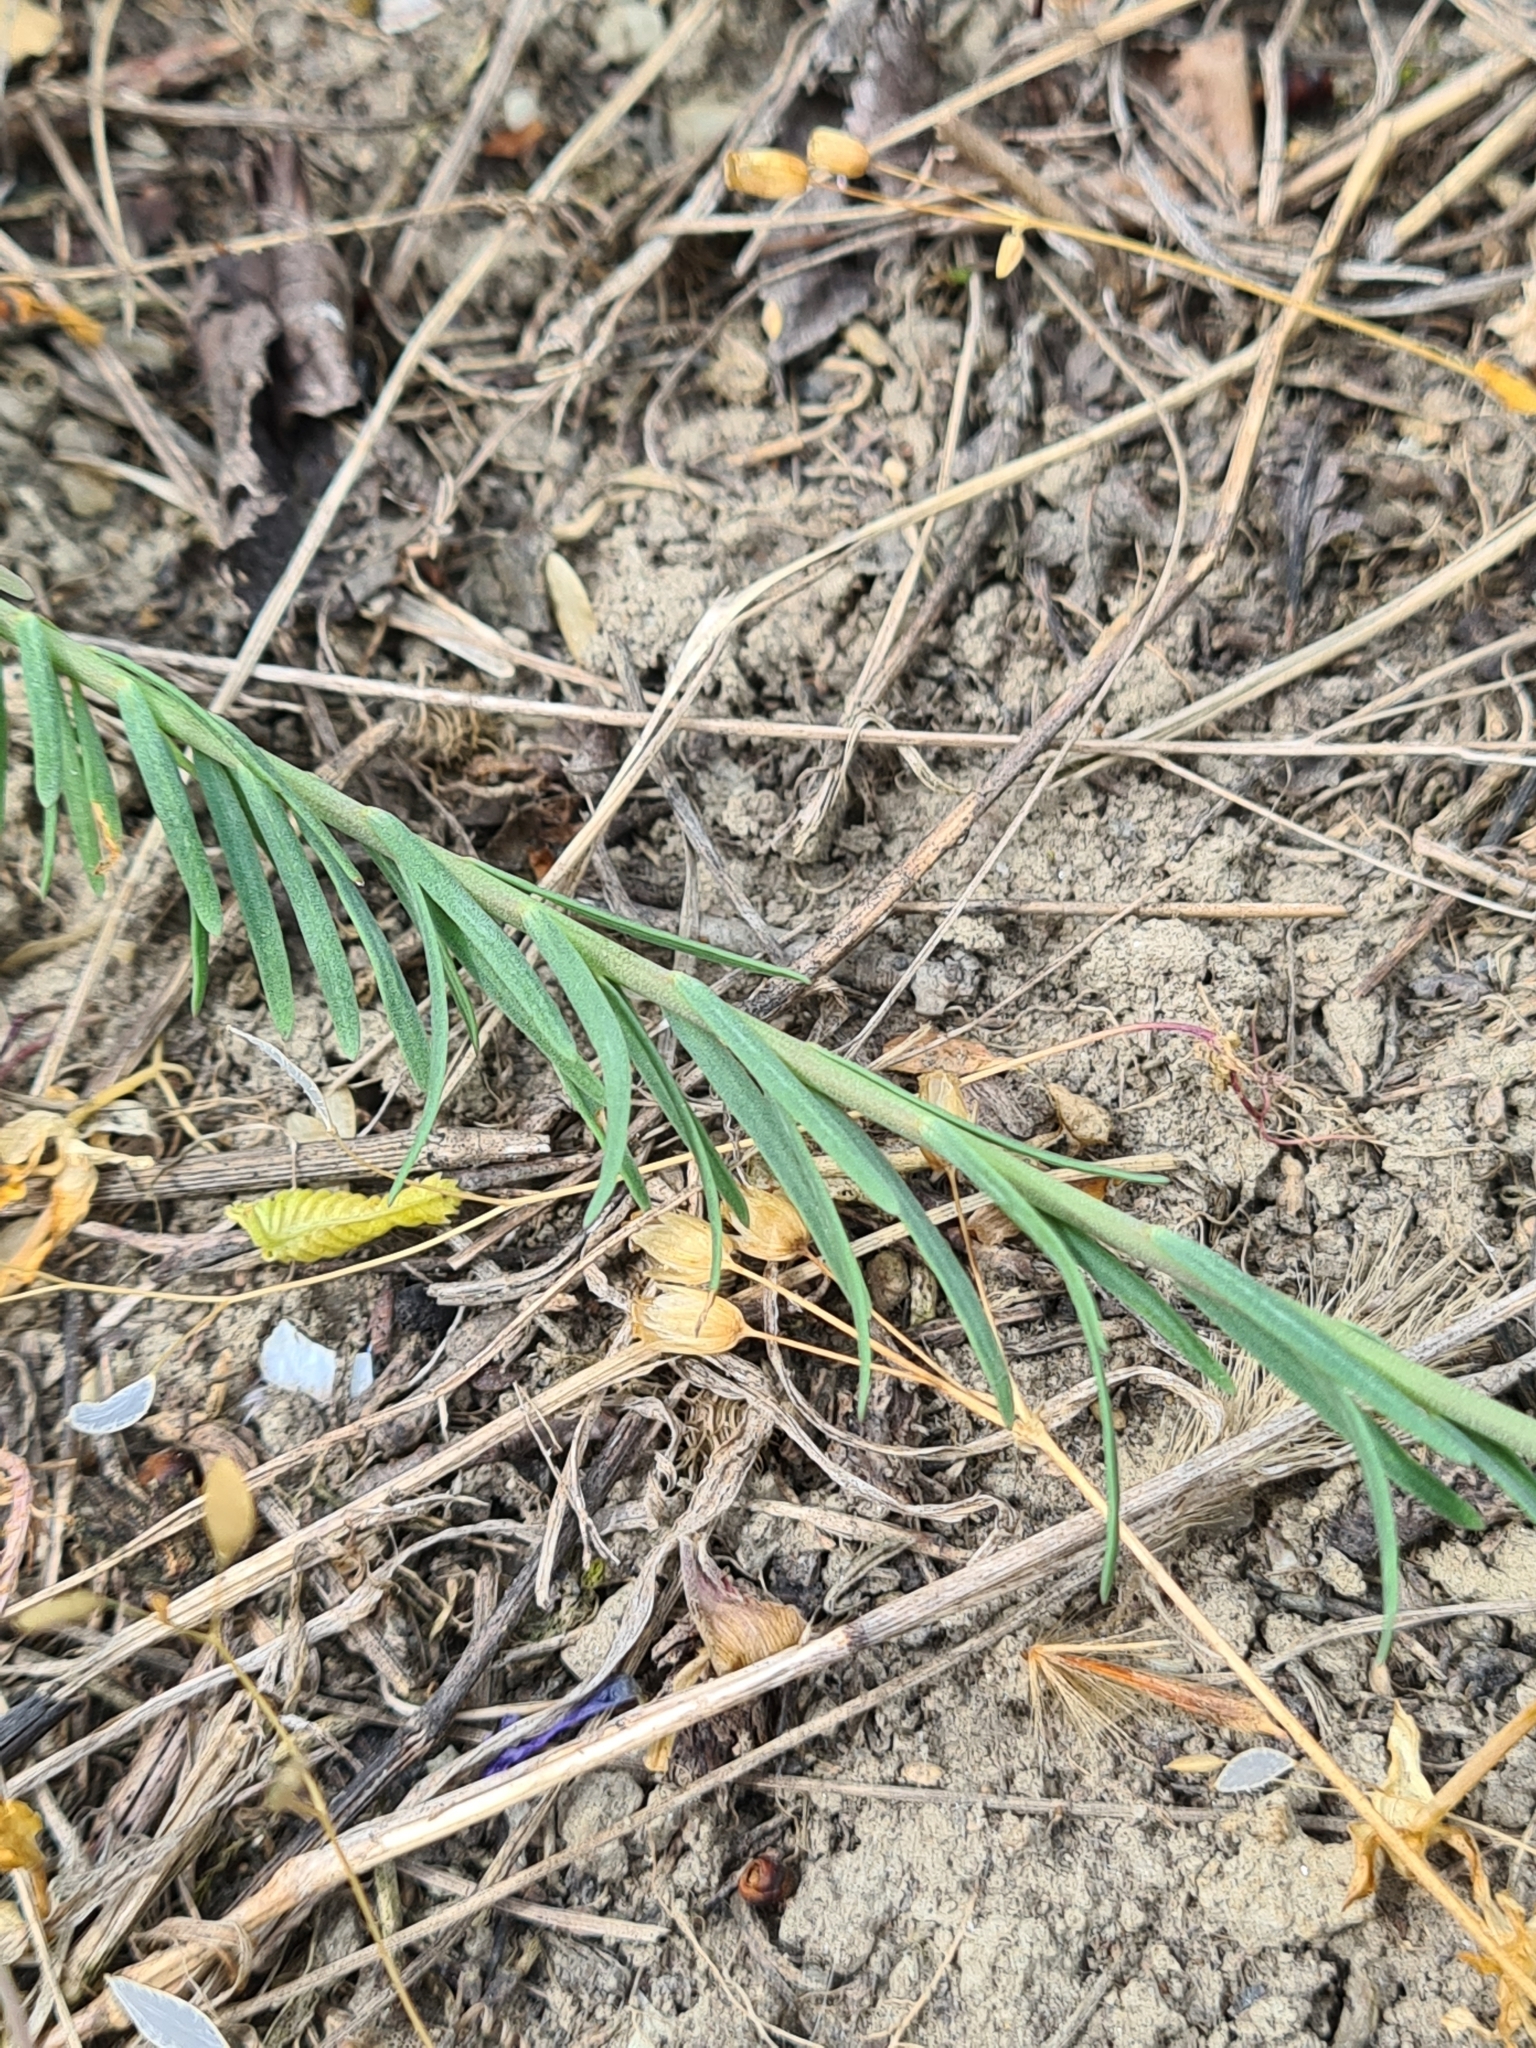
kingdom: Plantae
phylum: Tracheophyta
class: Magnoliopsida
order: Malpighiales
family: Linaceae
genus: Linum
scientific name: Linum austriacum
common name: Austrian flax
